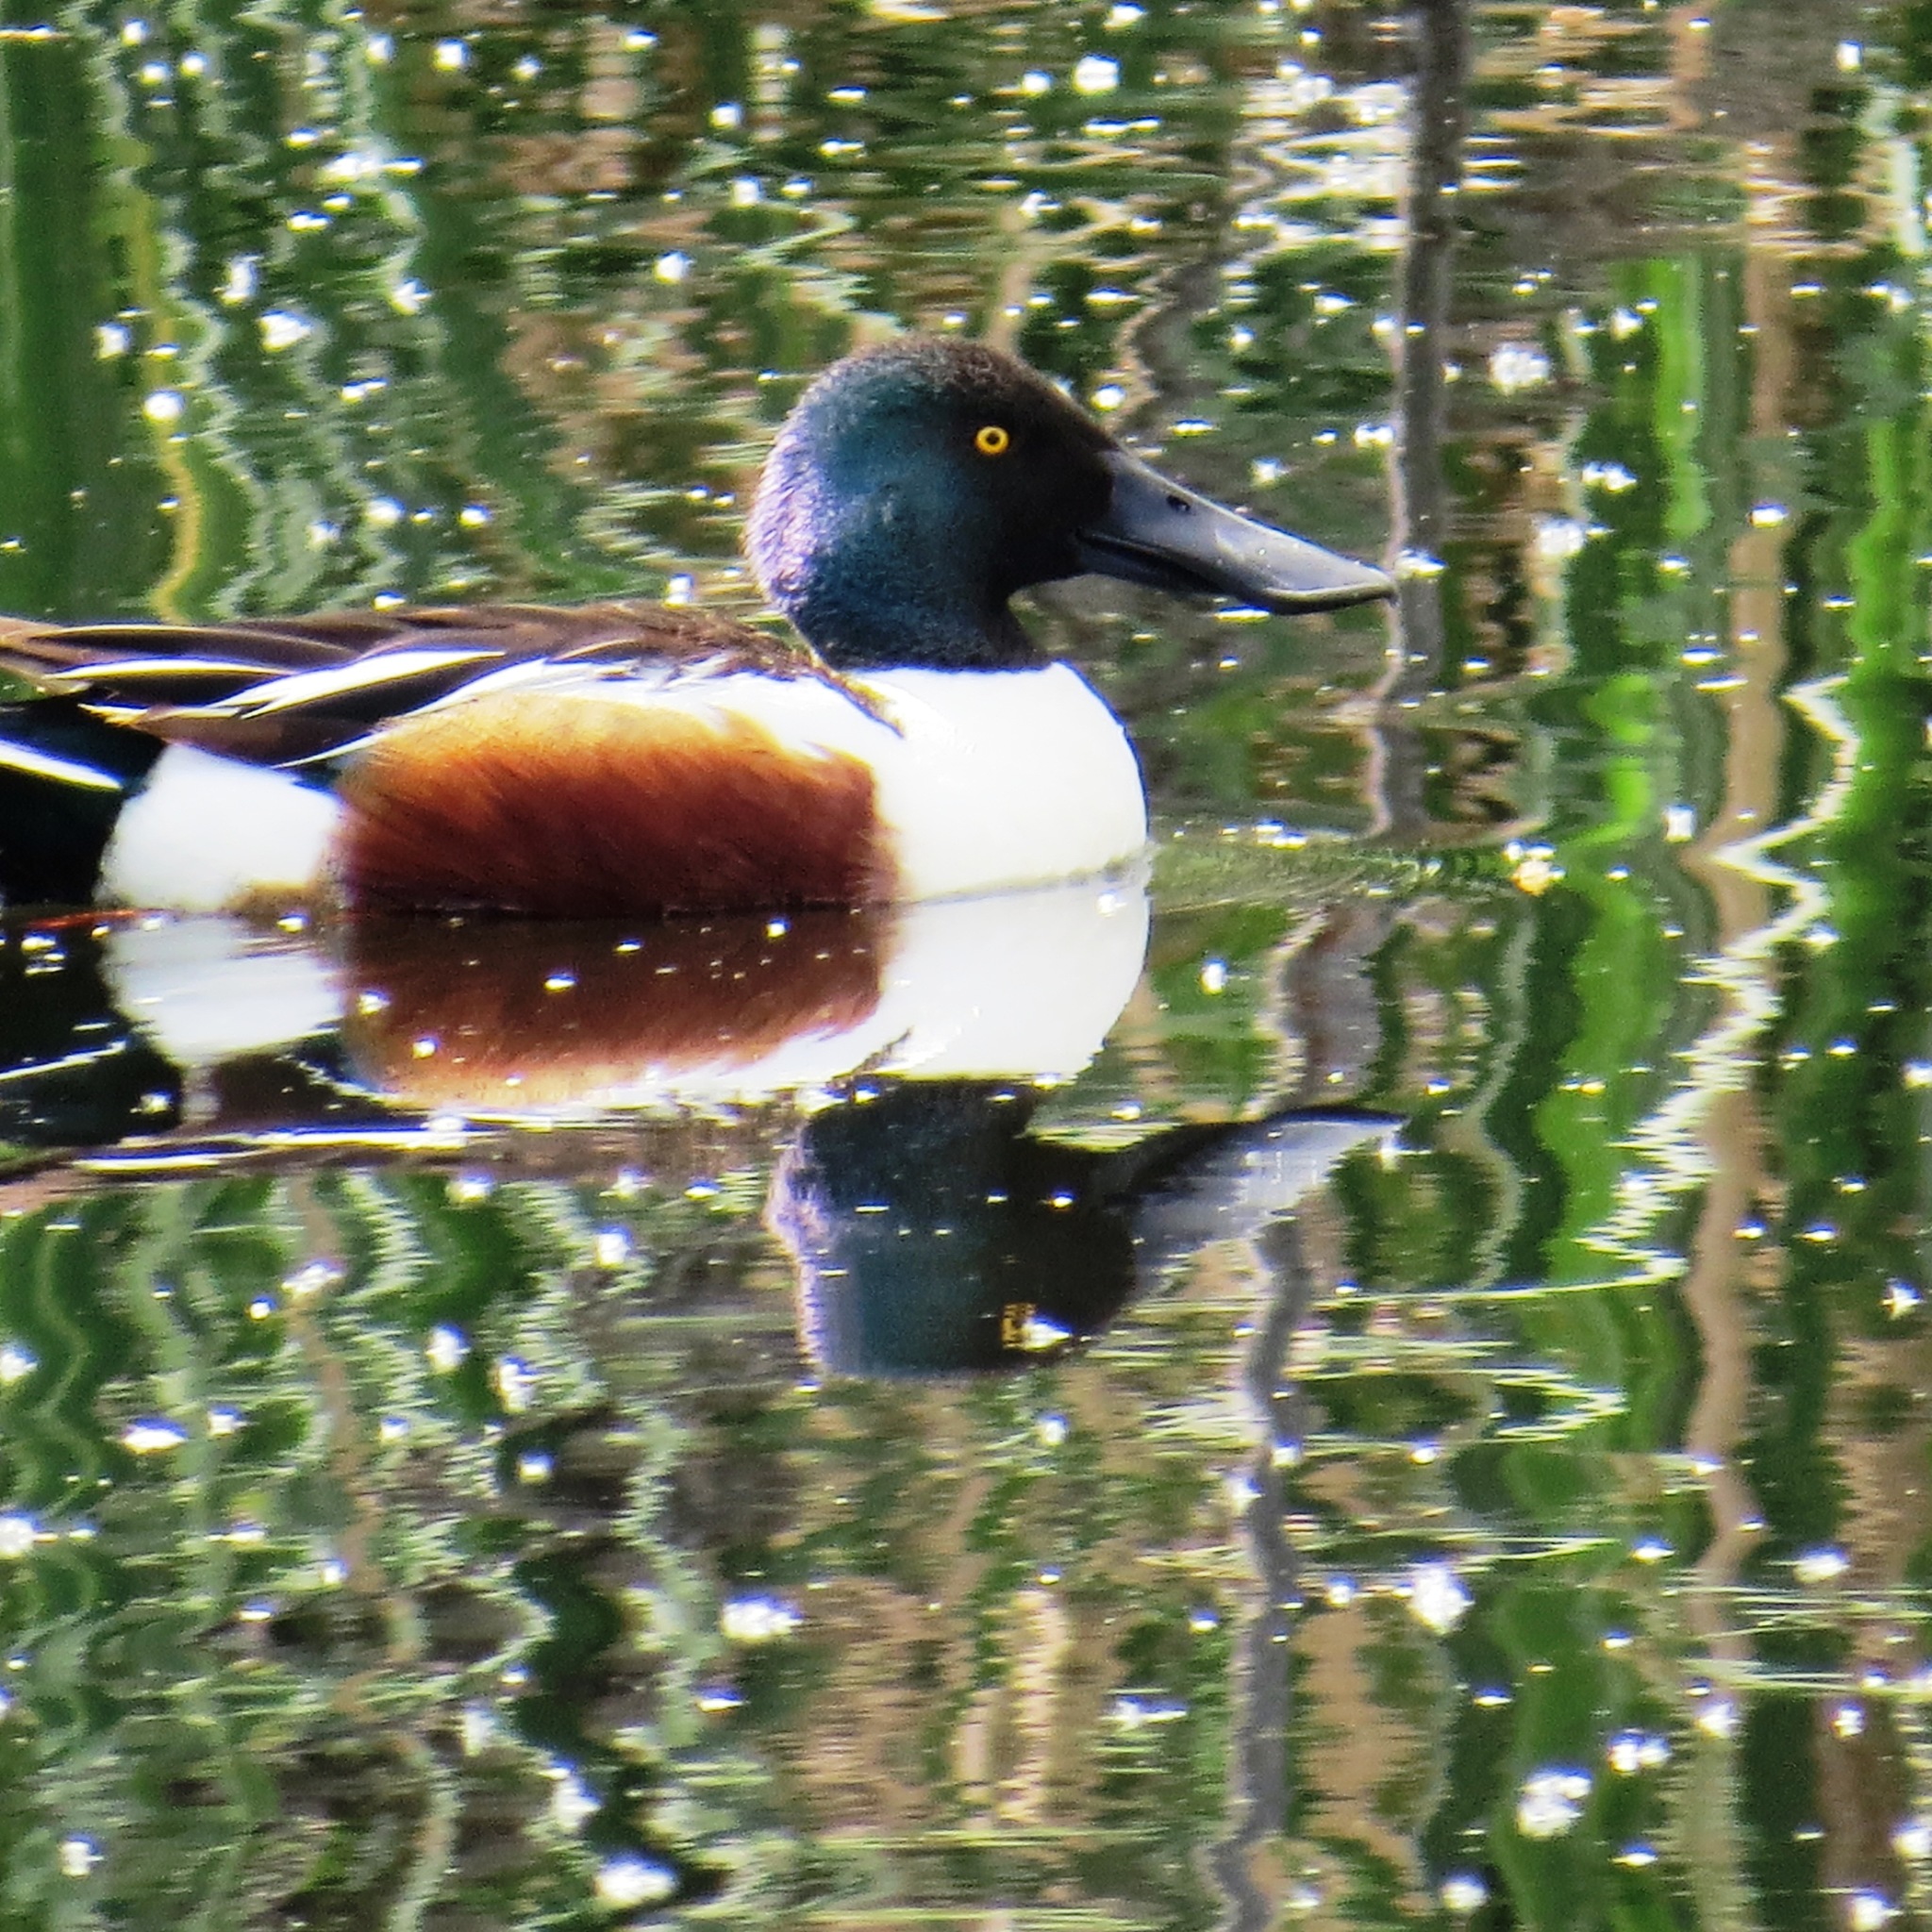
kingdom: Animalia
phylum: Chordata
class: Aves
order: Anseriformes
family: Anatidae
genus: Spatula
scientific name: Spatula clypeata
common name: Northern shoveler
